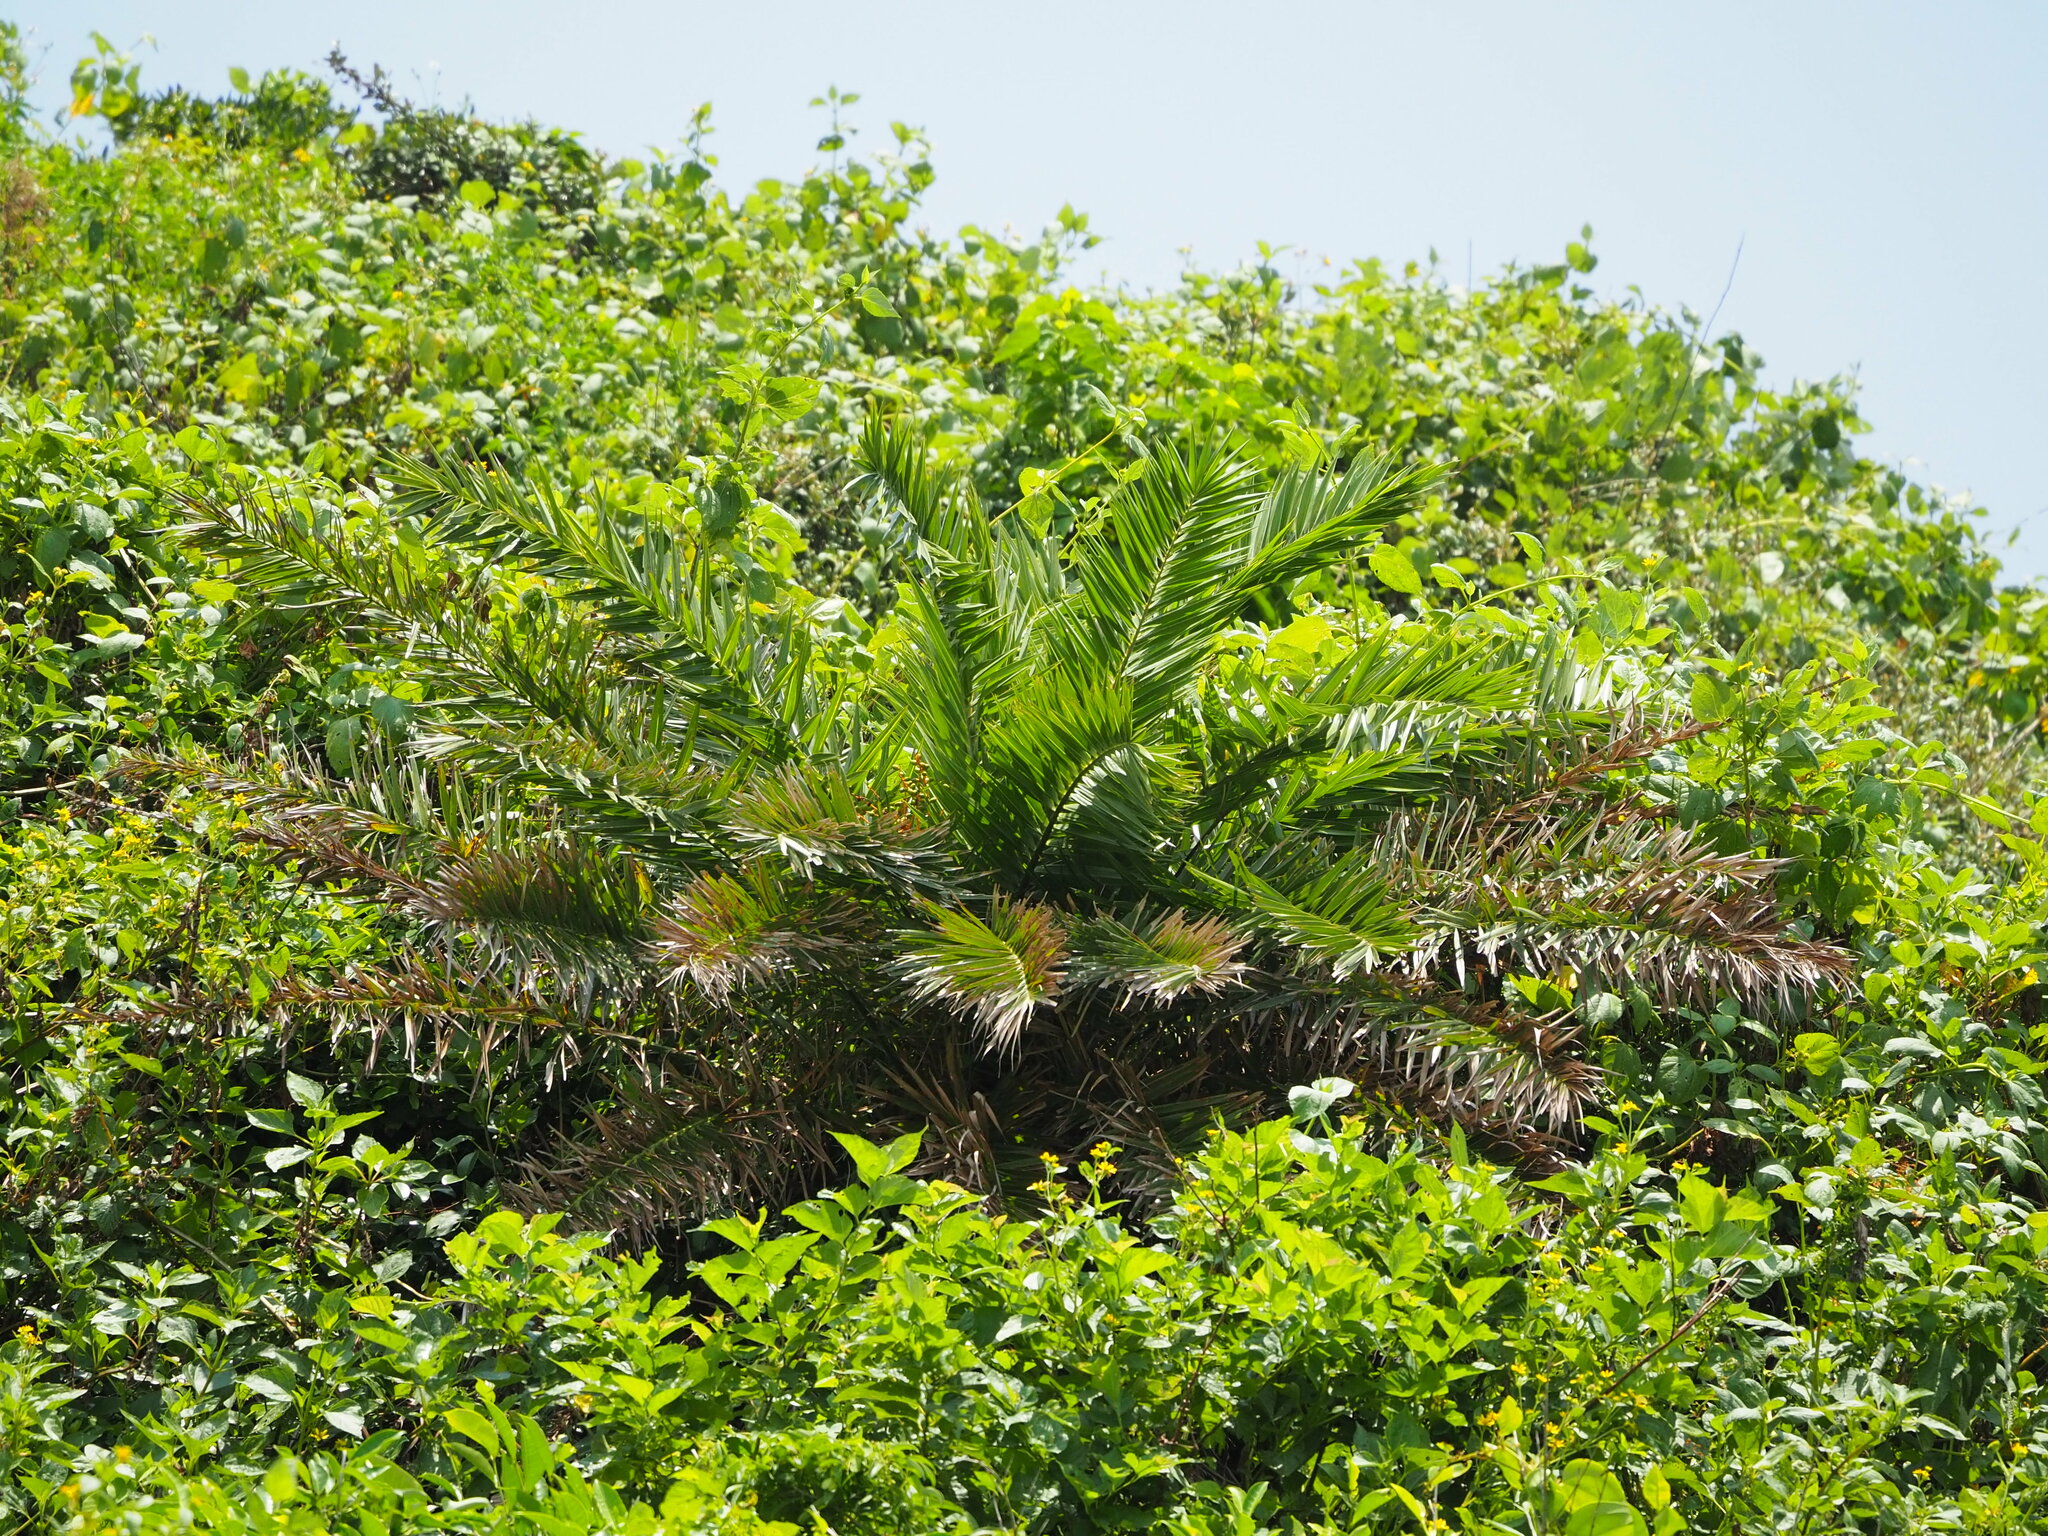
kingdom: Plantae
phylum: Tracheophyta
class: Liliopsida
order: Arecales
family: Arecaceae
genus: Phoenix
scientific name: Phoenix loureiroi
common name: Loureiro's palm
